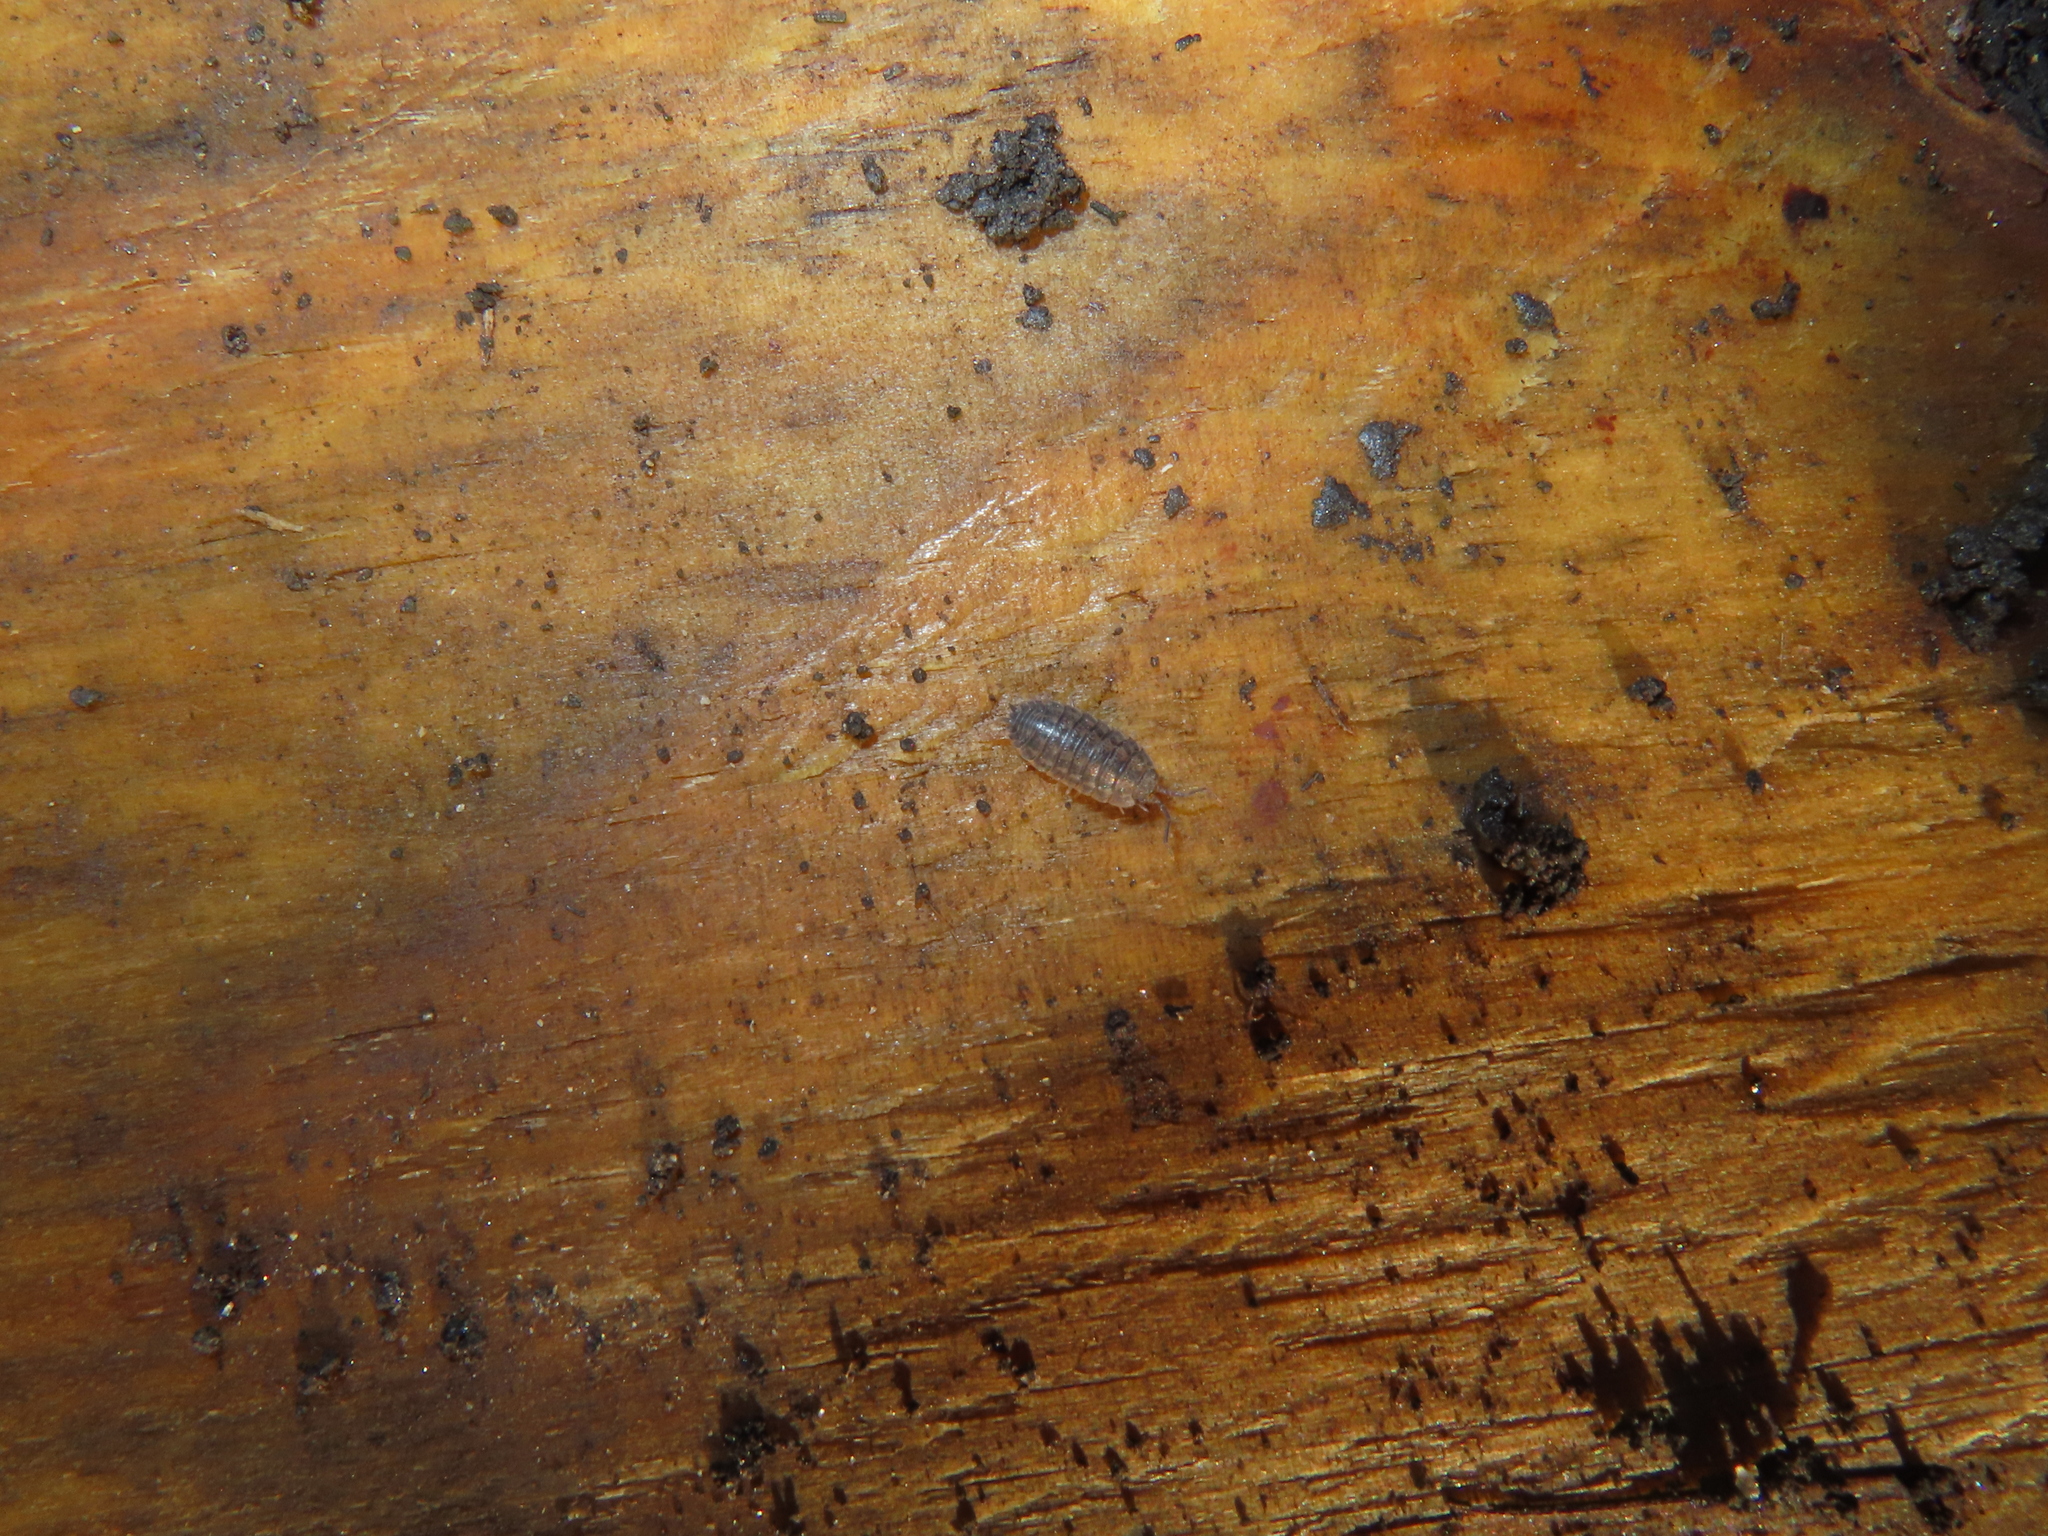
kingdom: Animalia
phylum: Arthropoda
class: Malacostraca
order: Isopoda
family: Trachelipodidae
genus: Trachelipus
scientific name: Trachelipus rathkii
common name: Isopod
